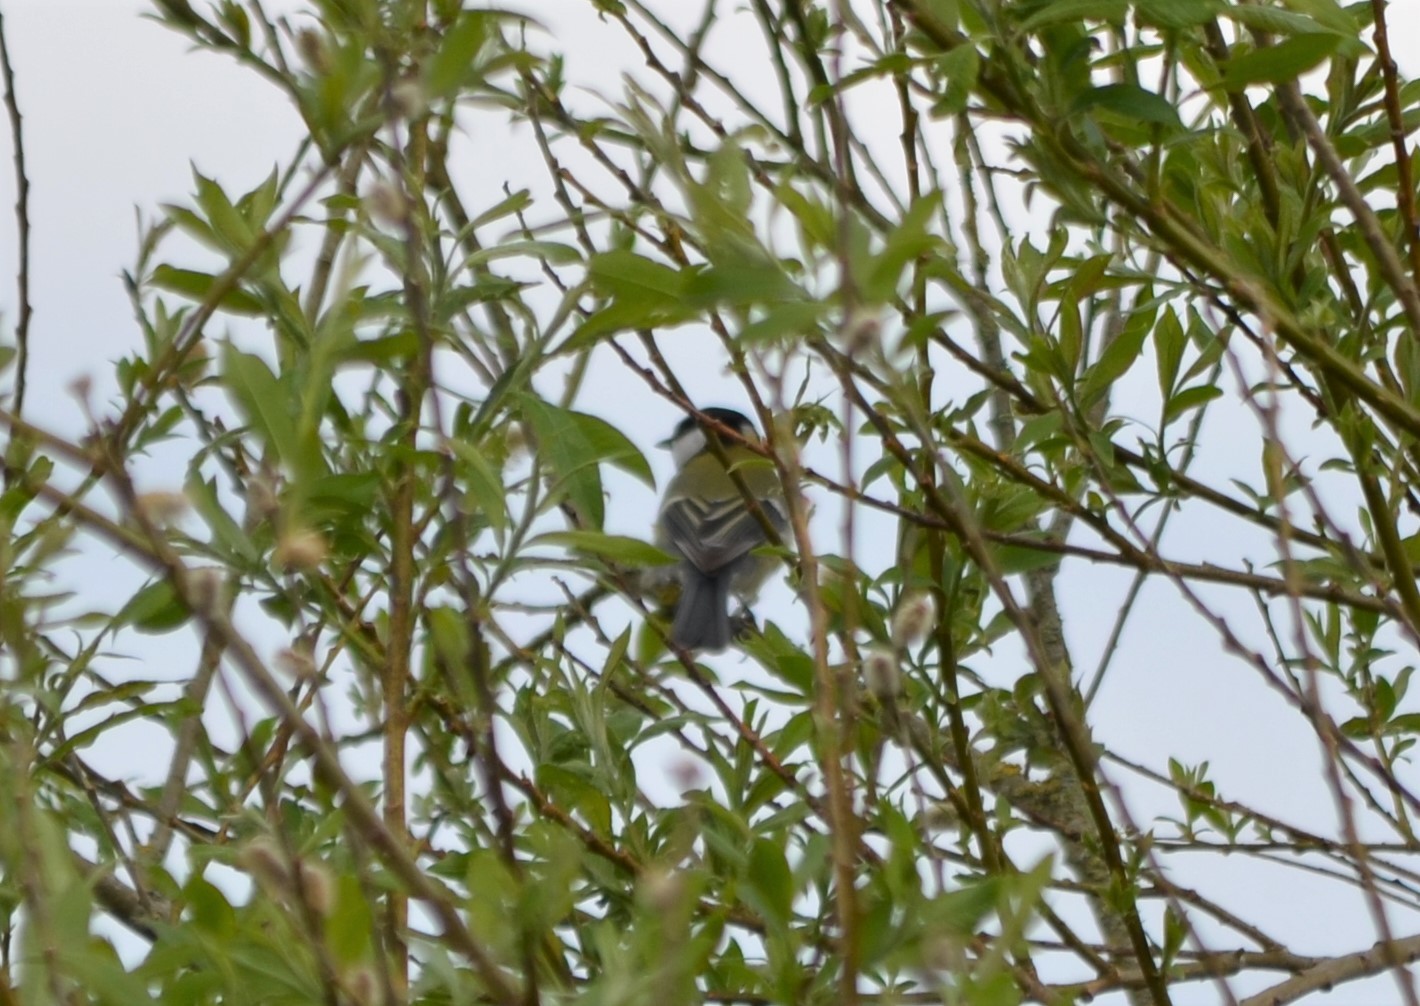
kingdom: Animalia
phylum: Chordata
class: Aves
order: Passeriformes
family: Paridae
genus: Parus
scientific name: Parus major
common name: Great tit
